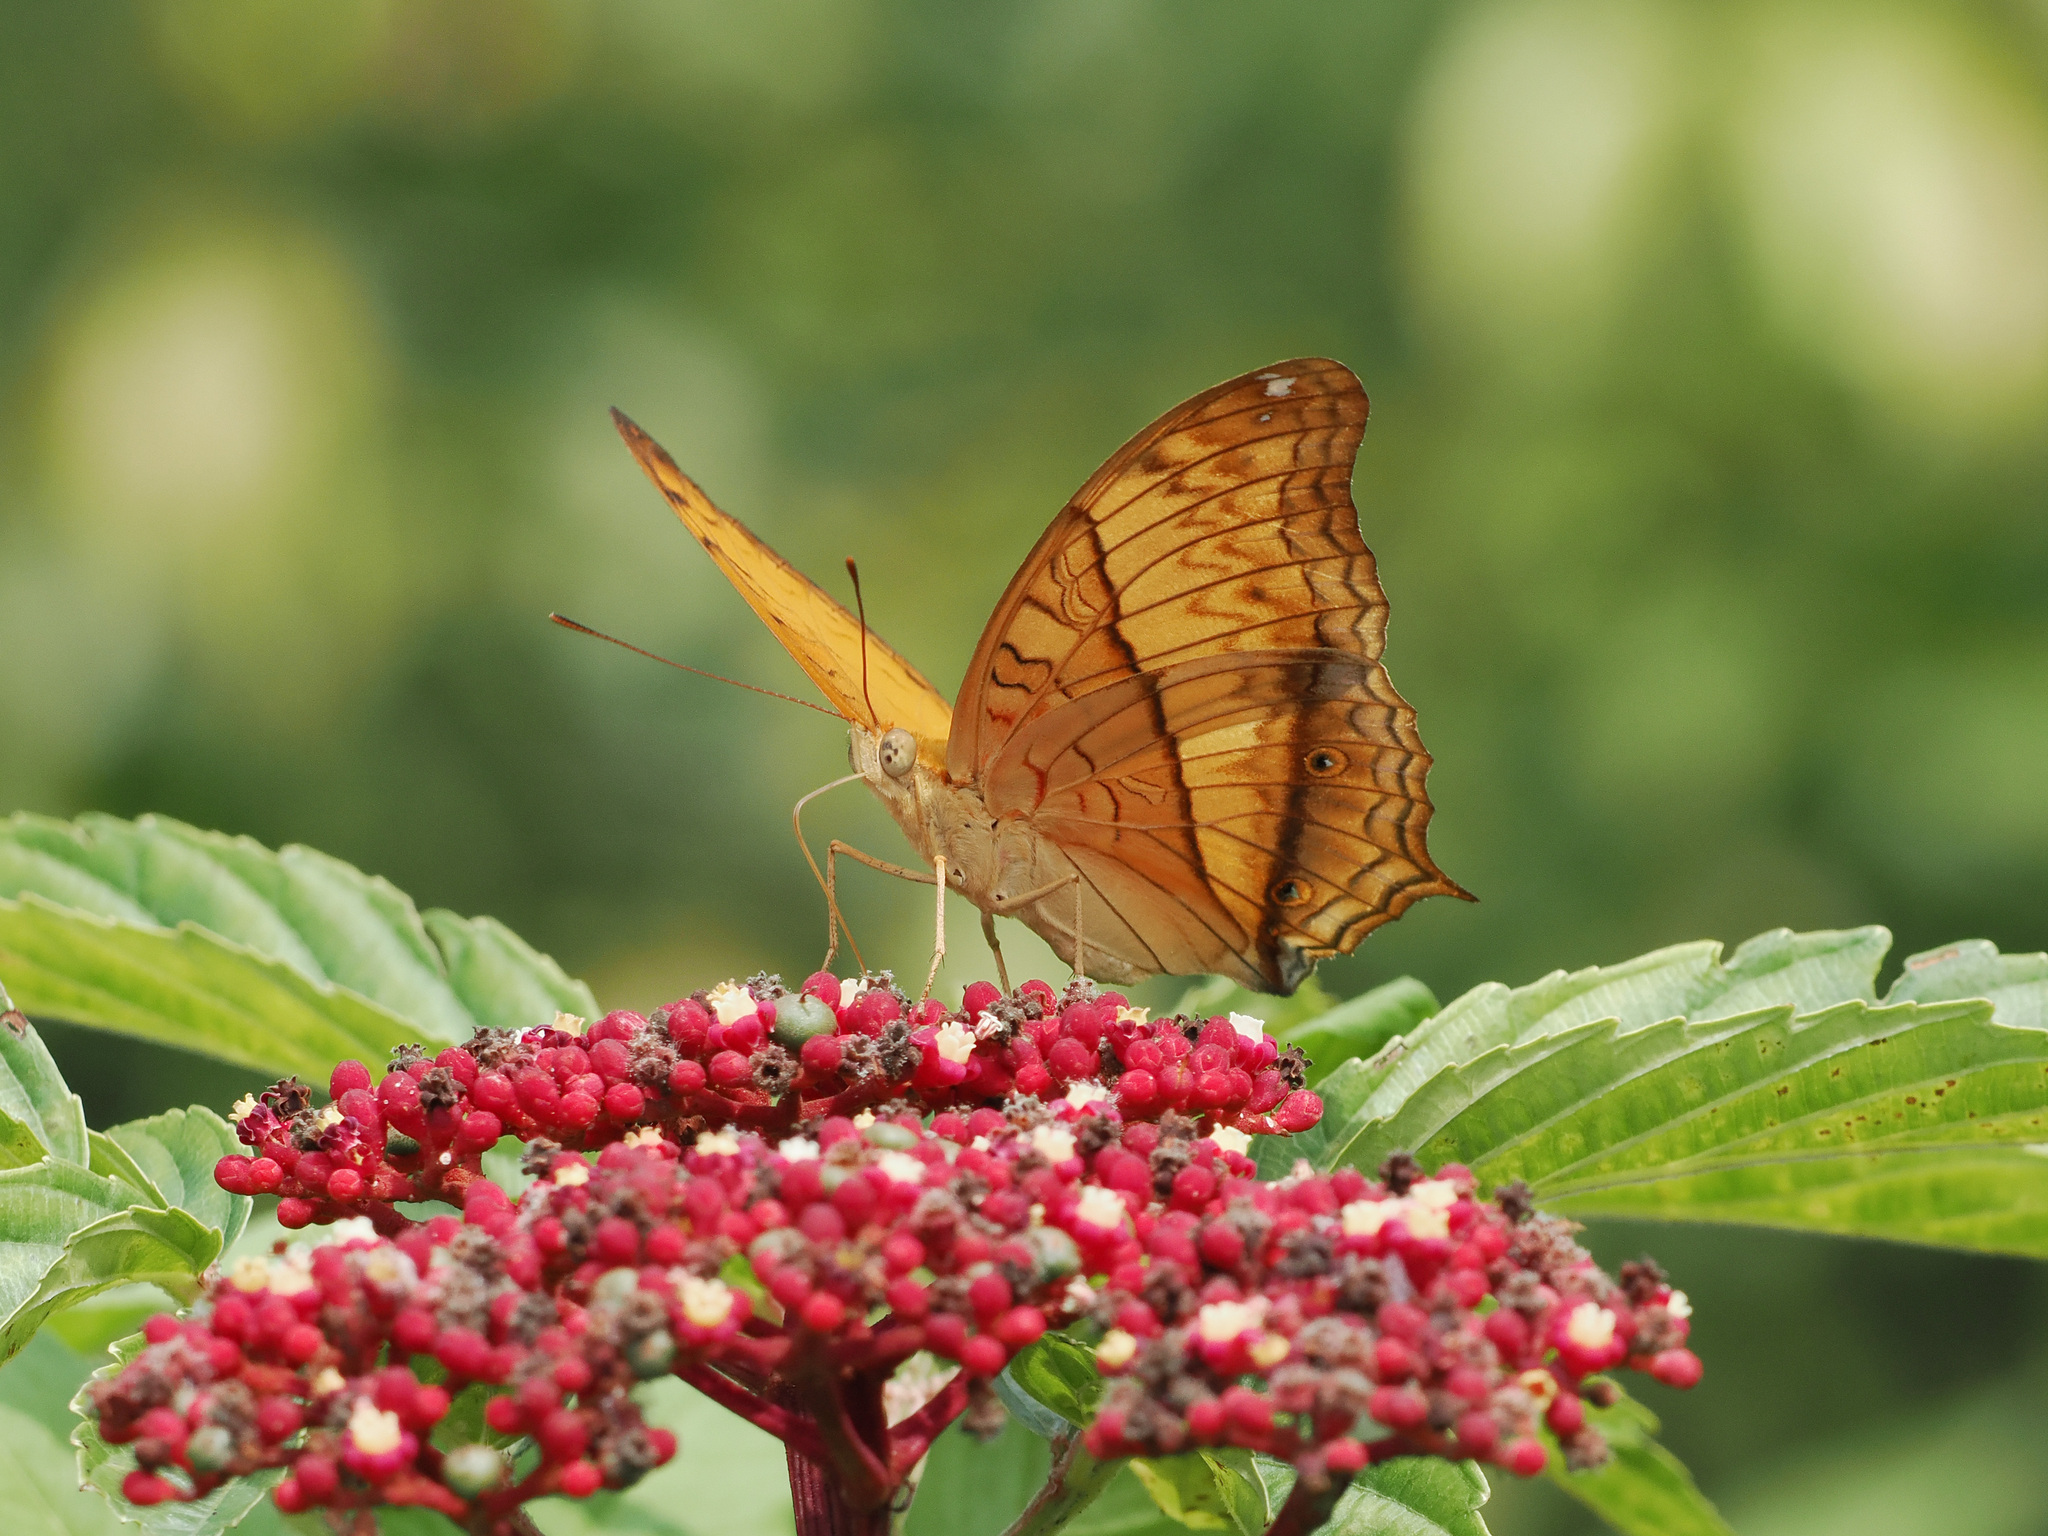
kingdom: Animalia
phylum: Arthropoda
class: Insecta
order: Lepidoptera
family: Nymphalidae
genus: Vindula
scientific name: Vindula deione
